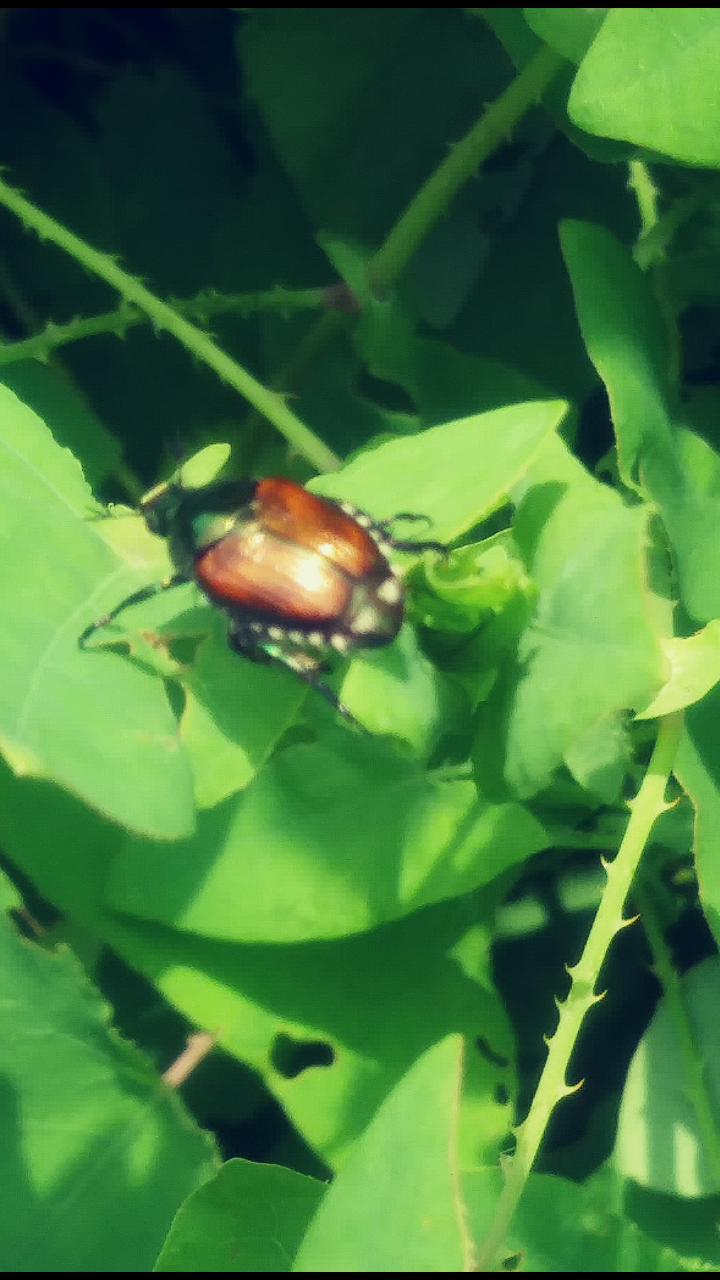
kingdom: Animalia
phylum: Arthropoda
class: Insecta
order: Coleoptera
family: Scarabaeidae
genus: Popillia
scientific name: Popillia japonica
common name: Japanese beetle
